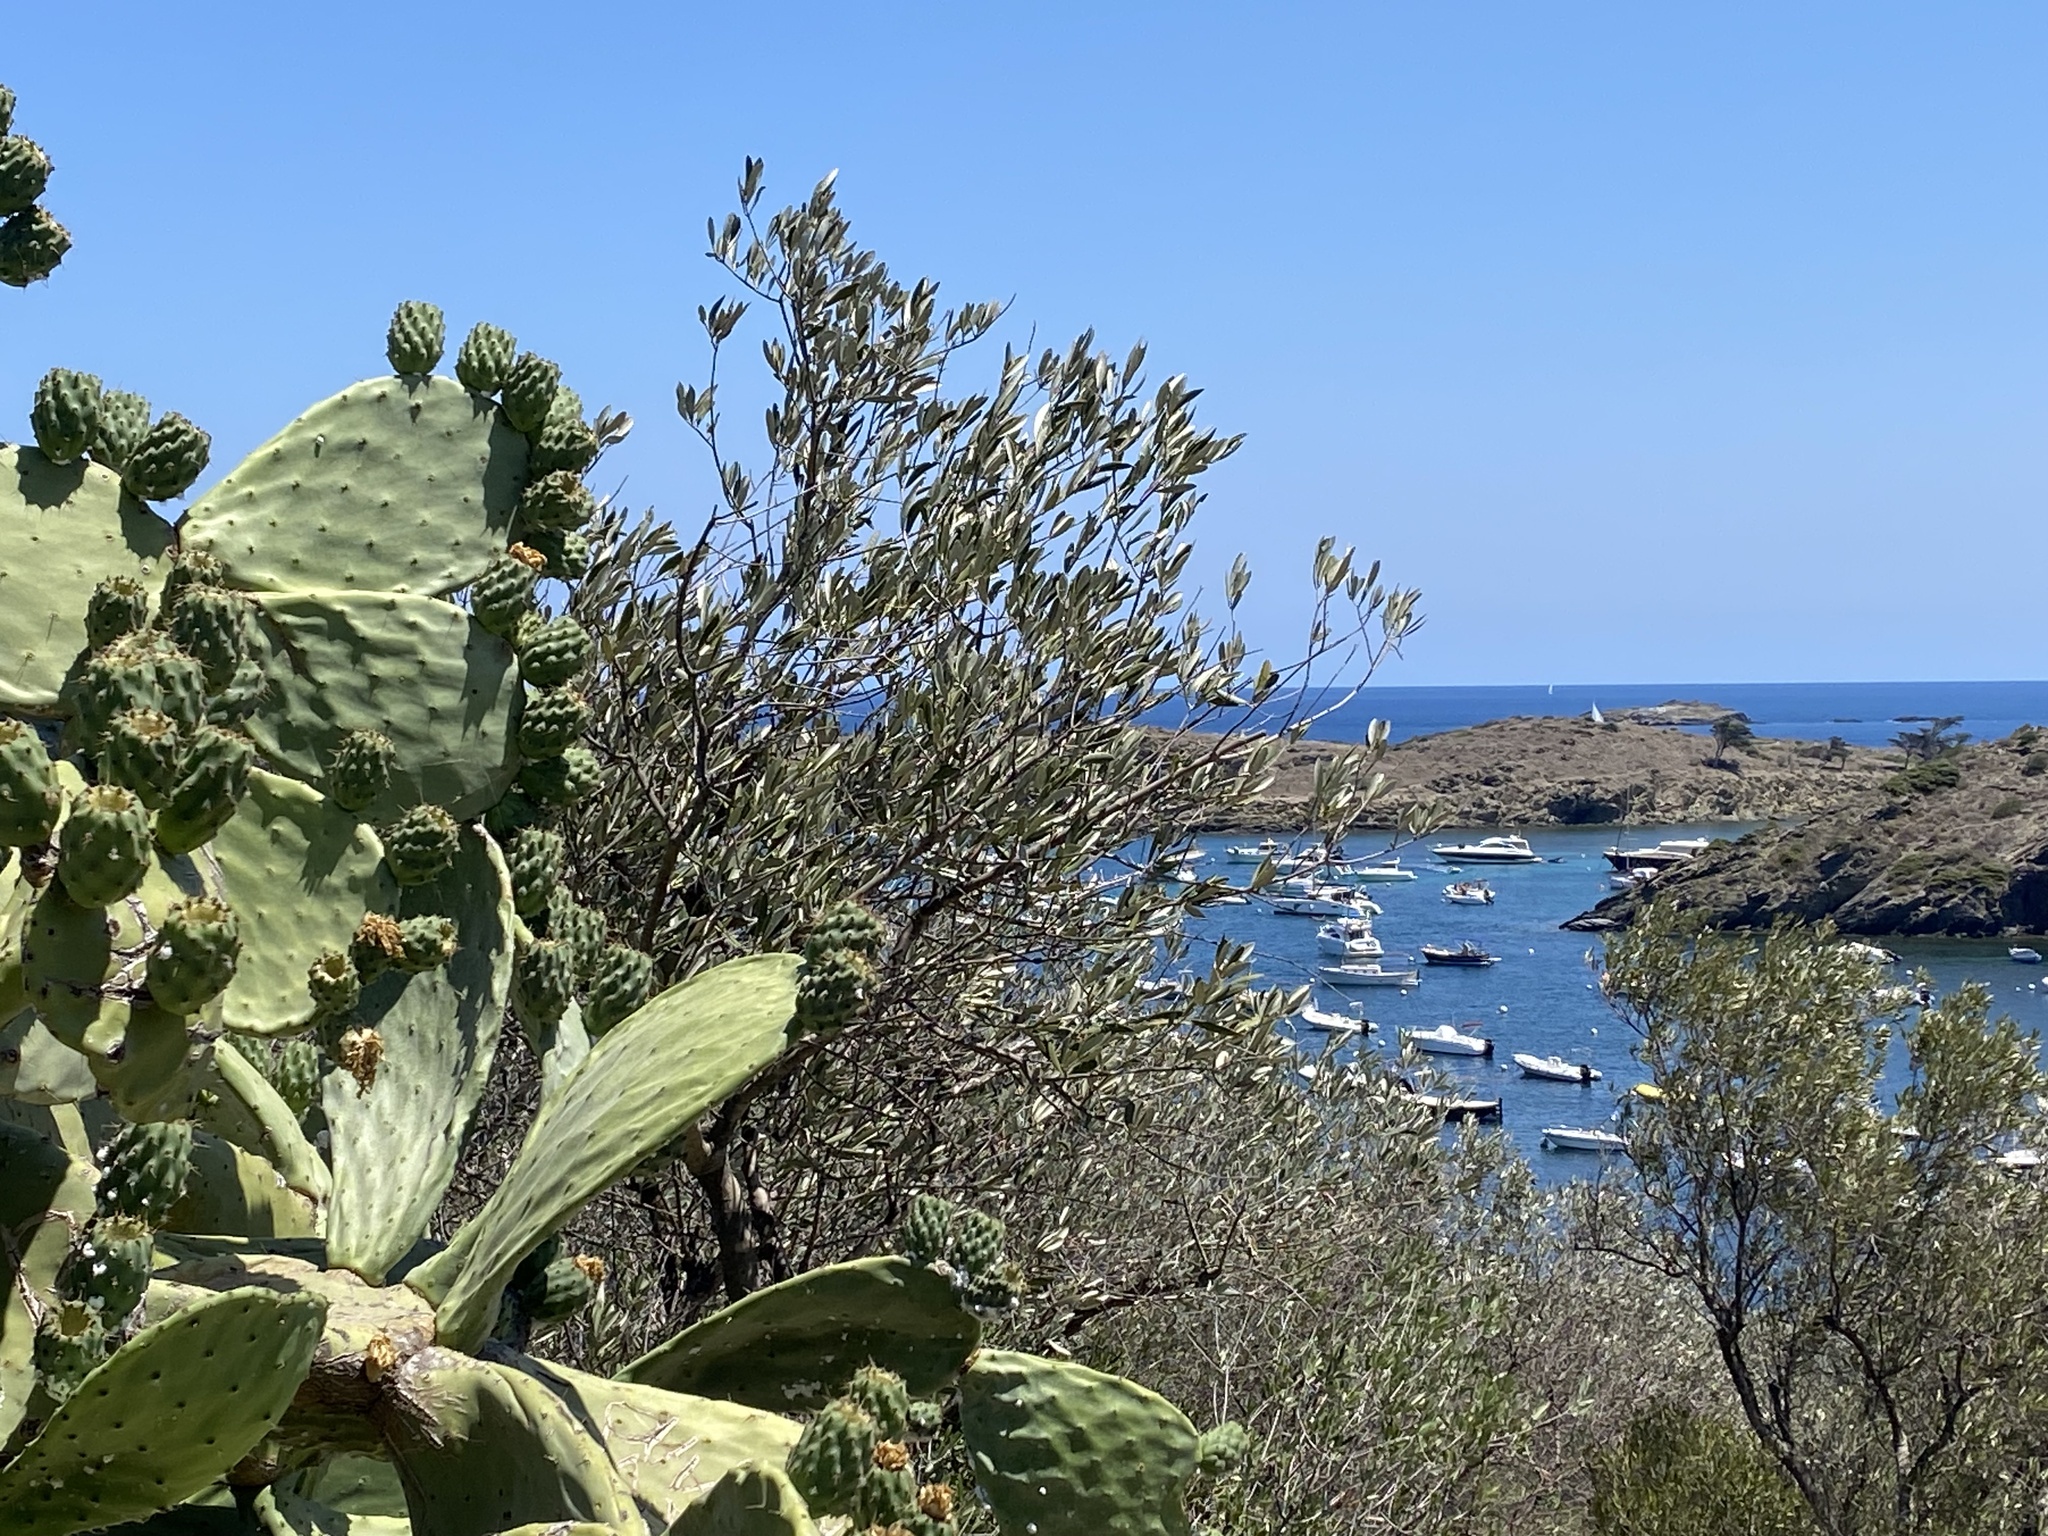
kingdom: Plantae
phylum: Tracheophyta
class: Magnoliopsida
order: Caryophyllales
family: Cactaceae
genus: Opuntia
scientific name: Opuntia ficus-indica
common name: Barbary fig
